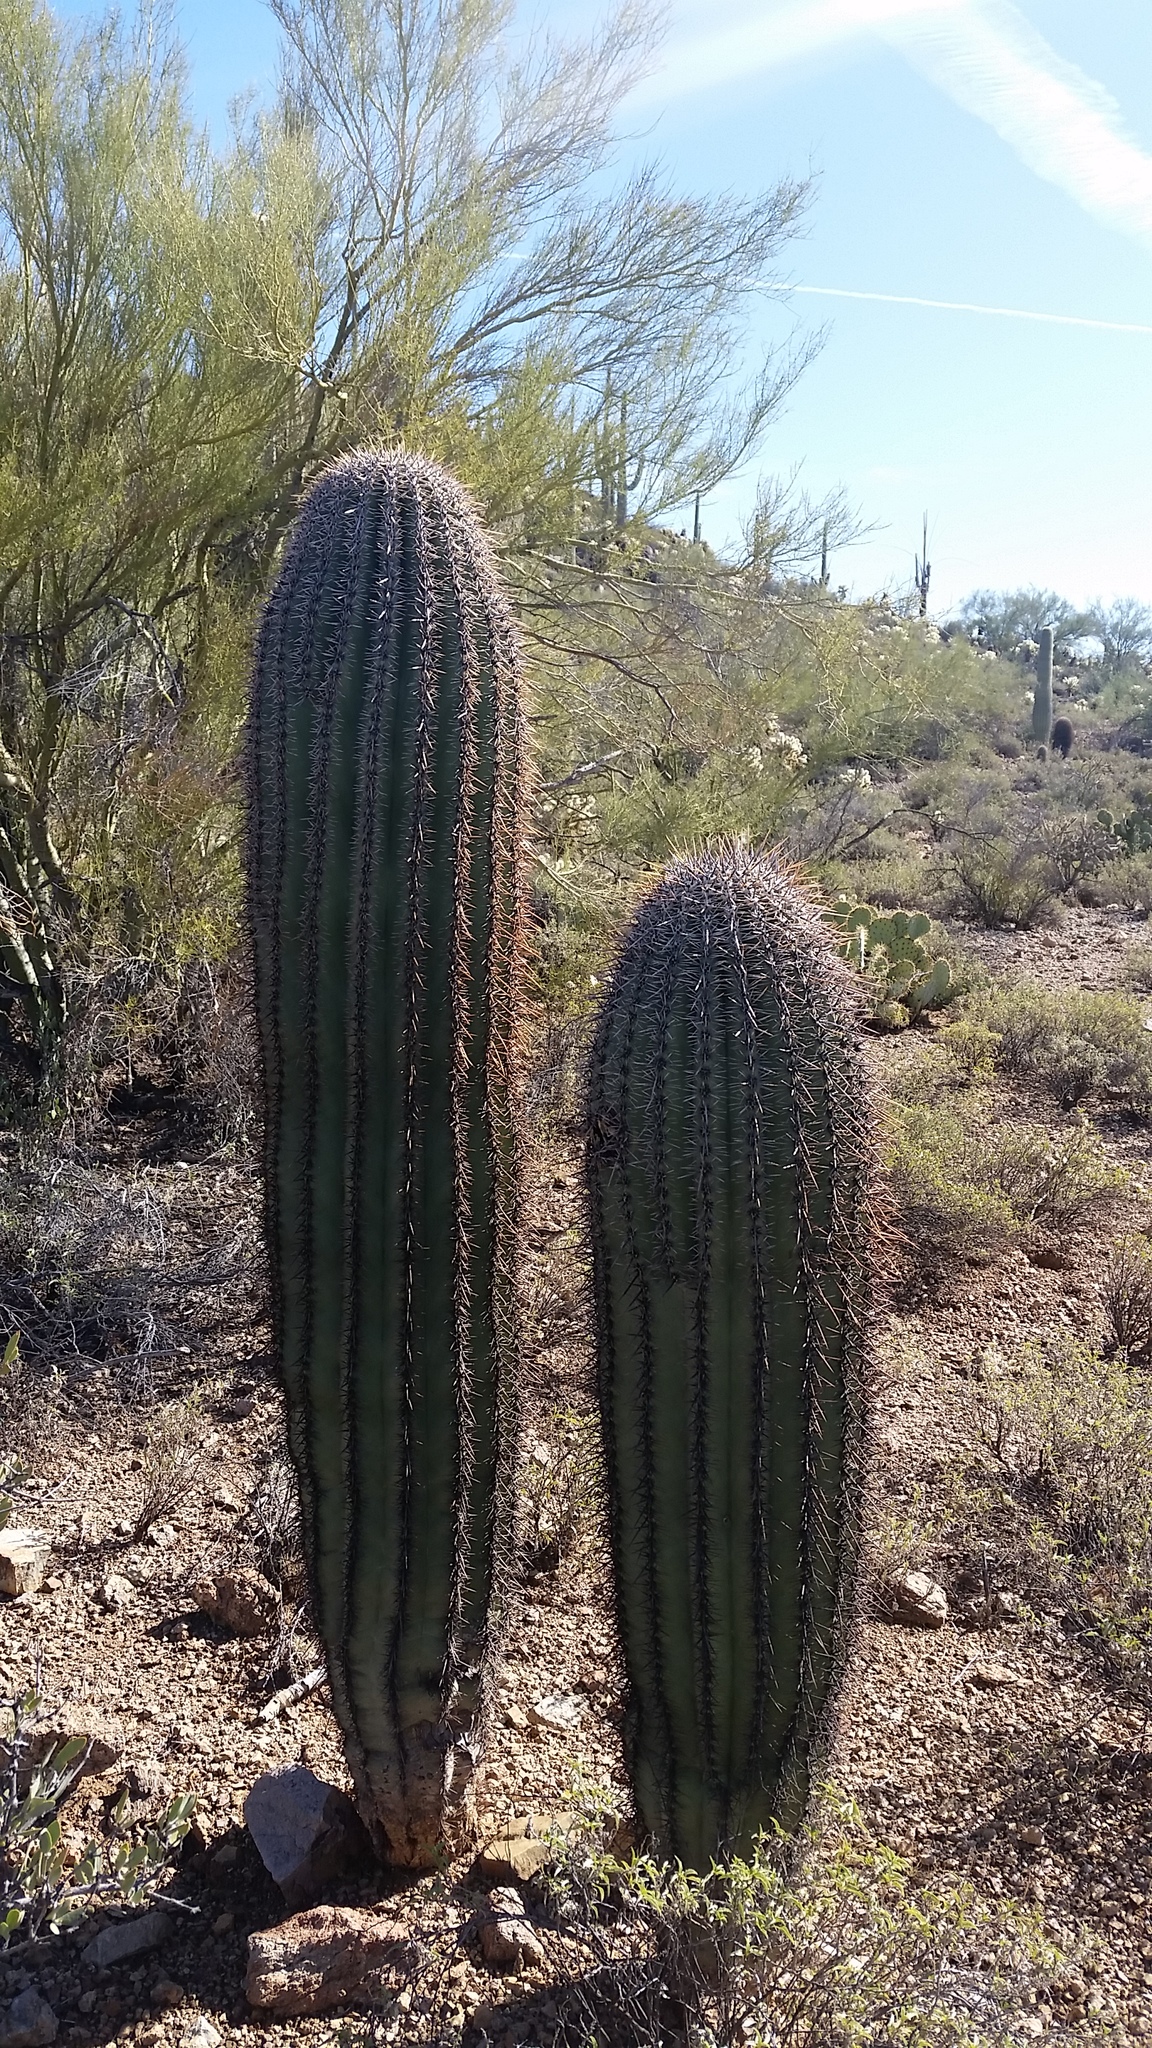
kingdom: Plantae
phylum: Tracheophyta
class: Magnoliopsida
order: Caryophyllales
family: Cactaceae
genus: Carnegiea
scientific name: Carnegiea gigantea
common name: Saguaro
